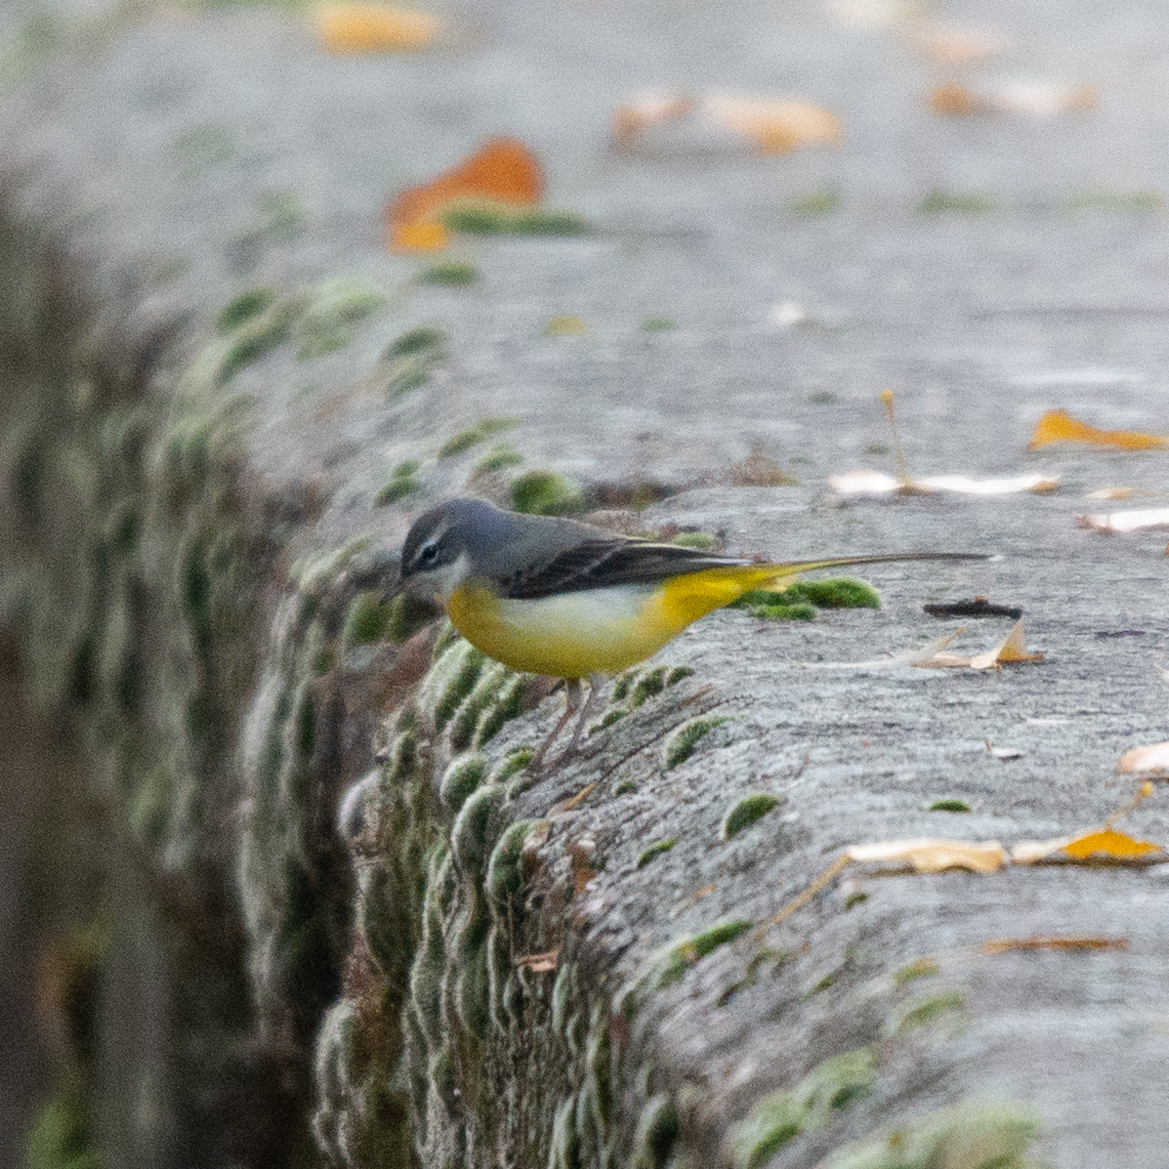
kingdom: Animalia
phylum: Chordata
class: Aves
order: Passeriformes
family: Motacillidae
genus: Motacilla
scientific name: Motacilla cinerea
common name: Grey wagtail
